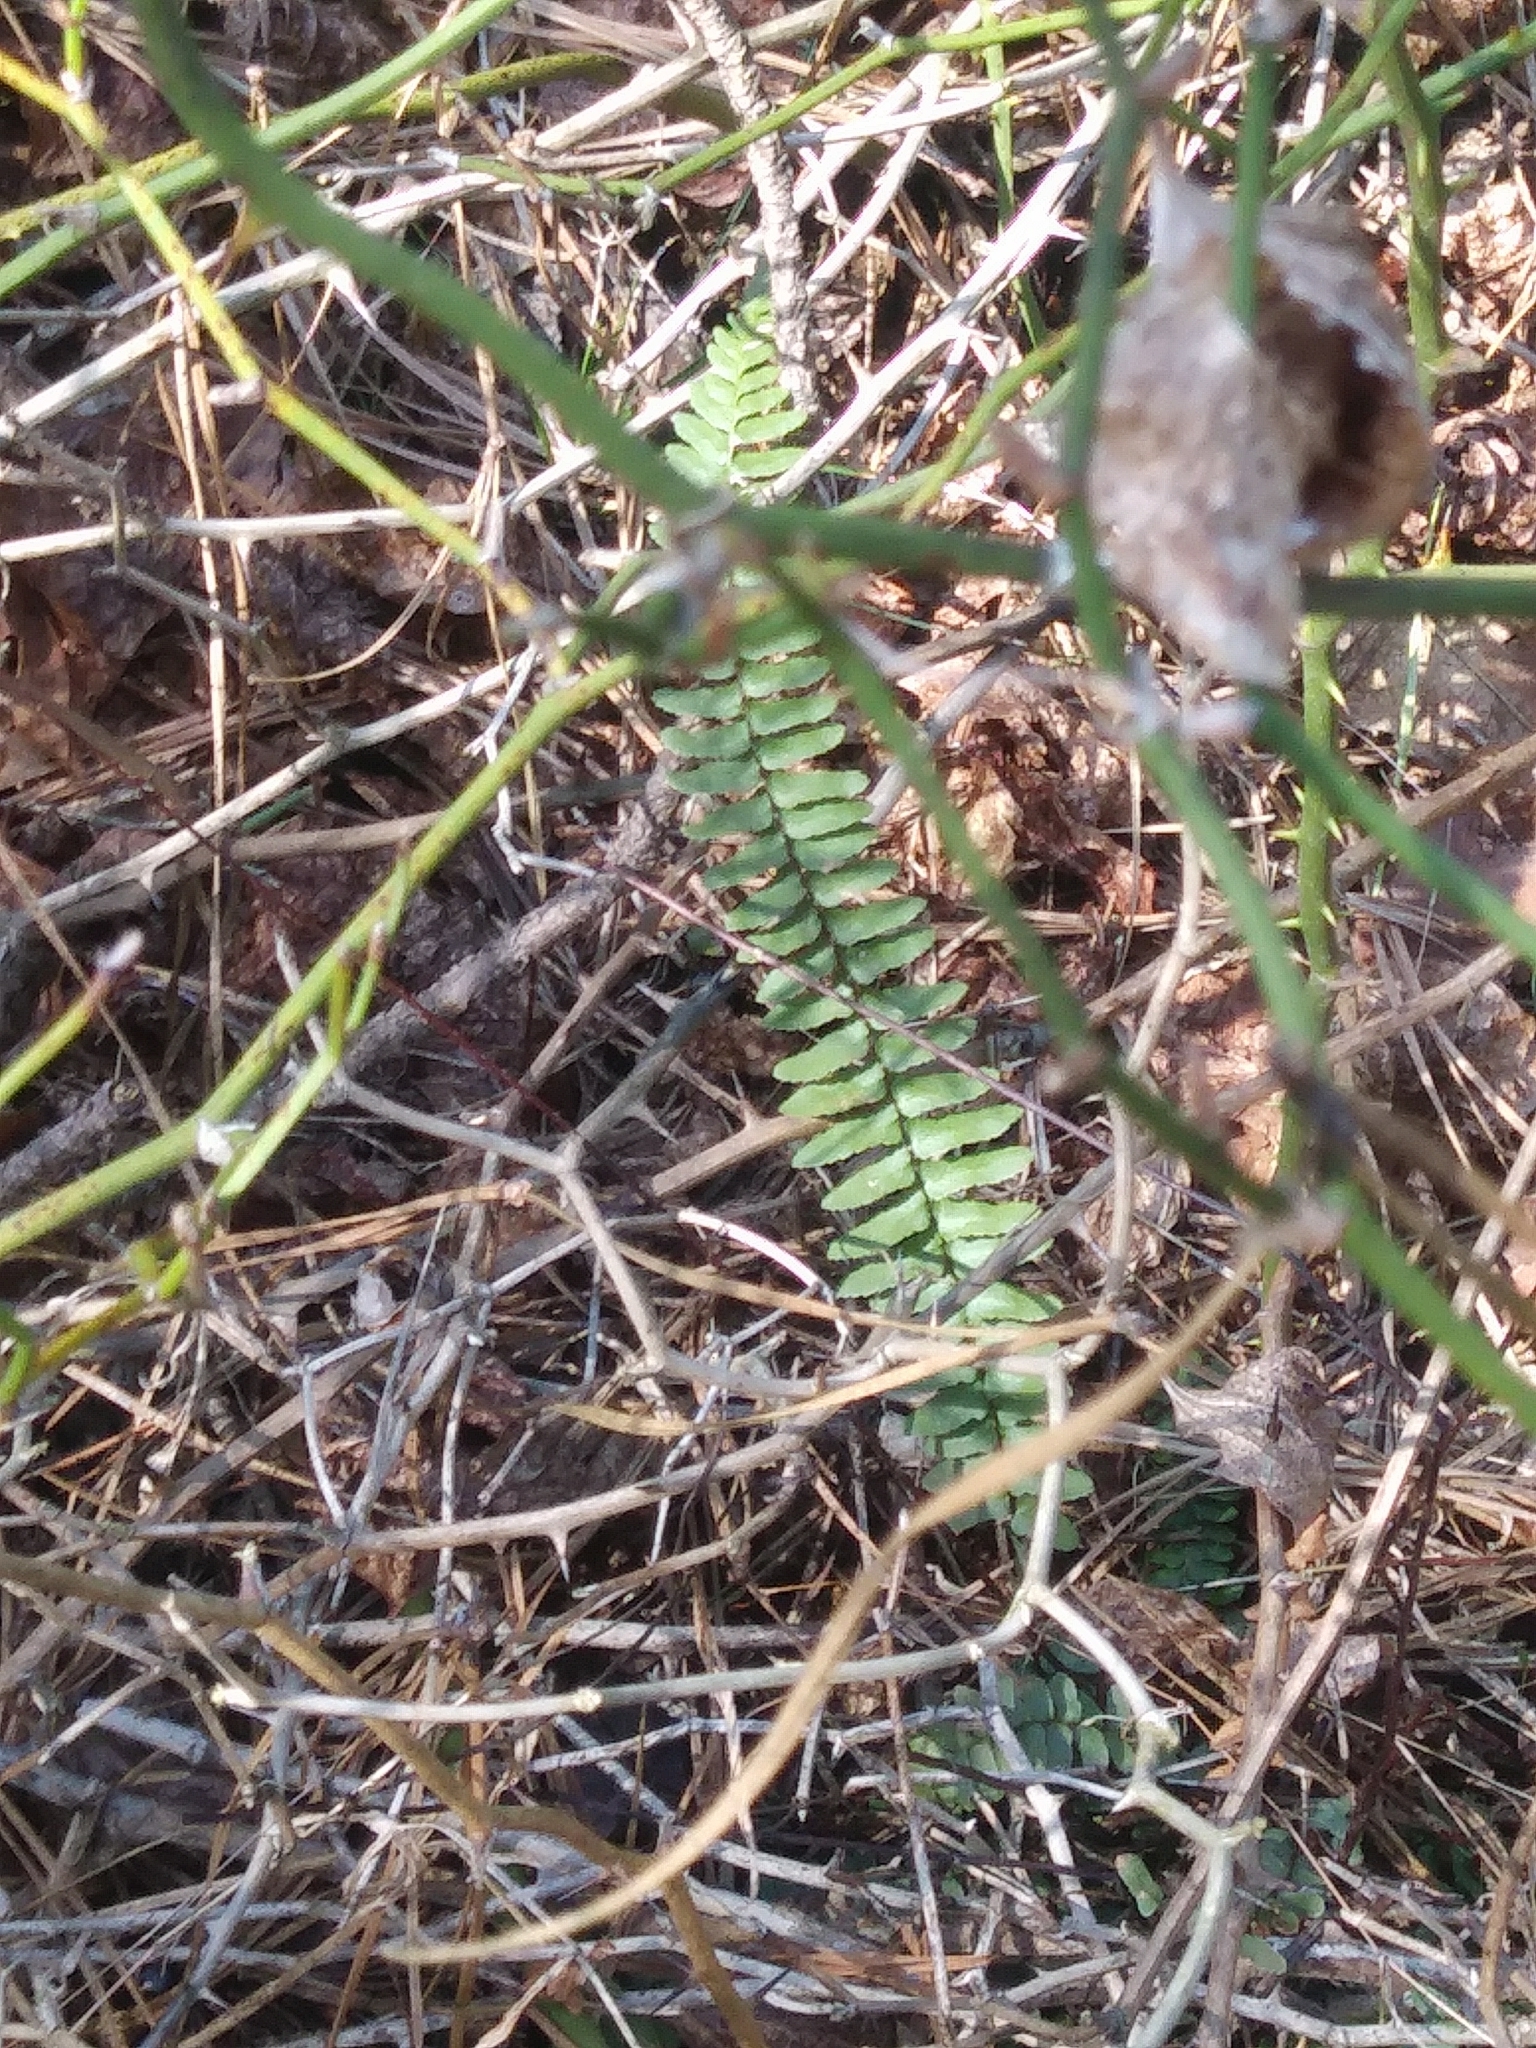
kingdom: Plantae
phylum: Tracheophyta
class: Polypodiopsida
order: Polypodiales
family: Aspleniaceae
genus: Asplenium
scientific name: Asplenium platyneuron
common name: Ebony spleenwort
